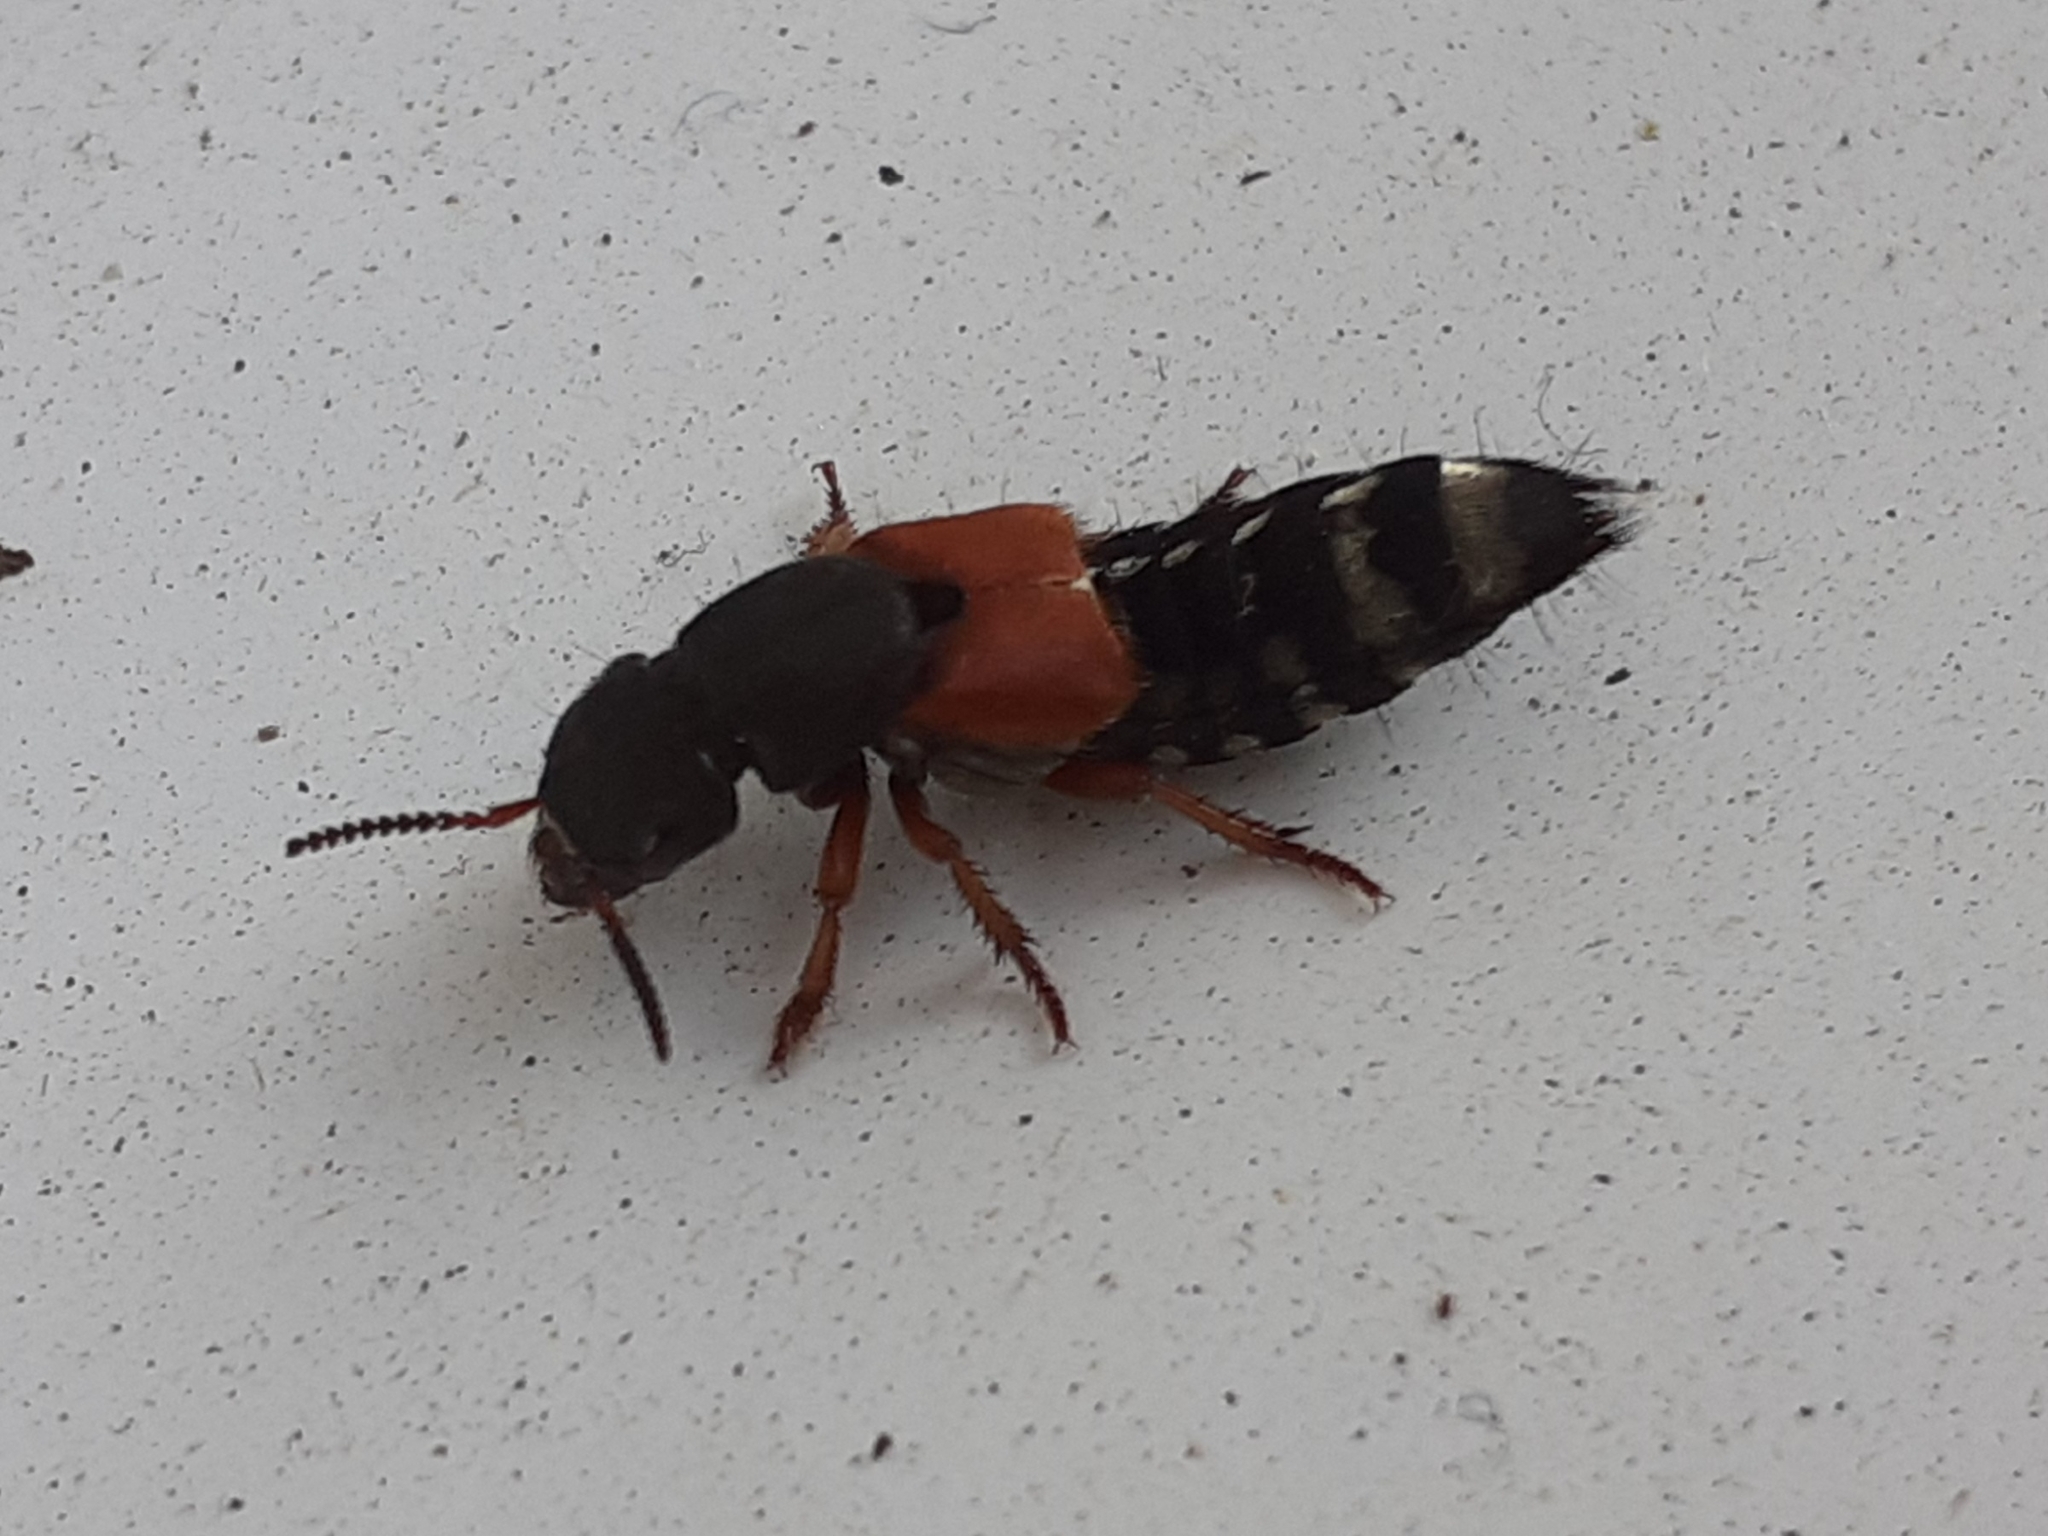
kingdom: Animalia
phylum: Arthropoda
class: Insecta
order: Coleoptera
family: Staphylinidae
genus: Platydracus
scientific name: Platydracus stercorarius
